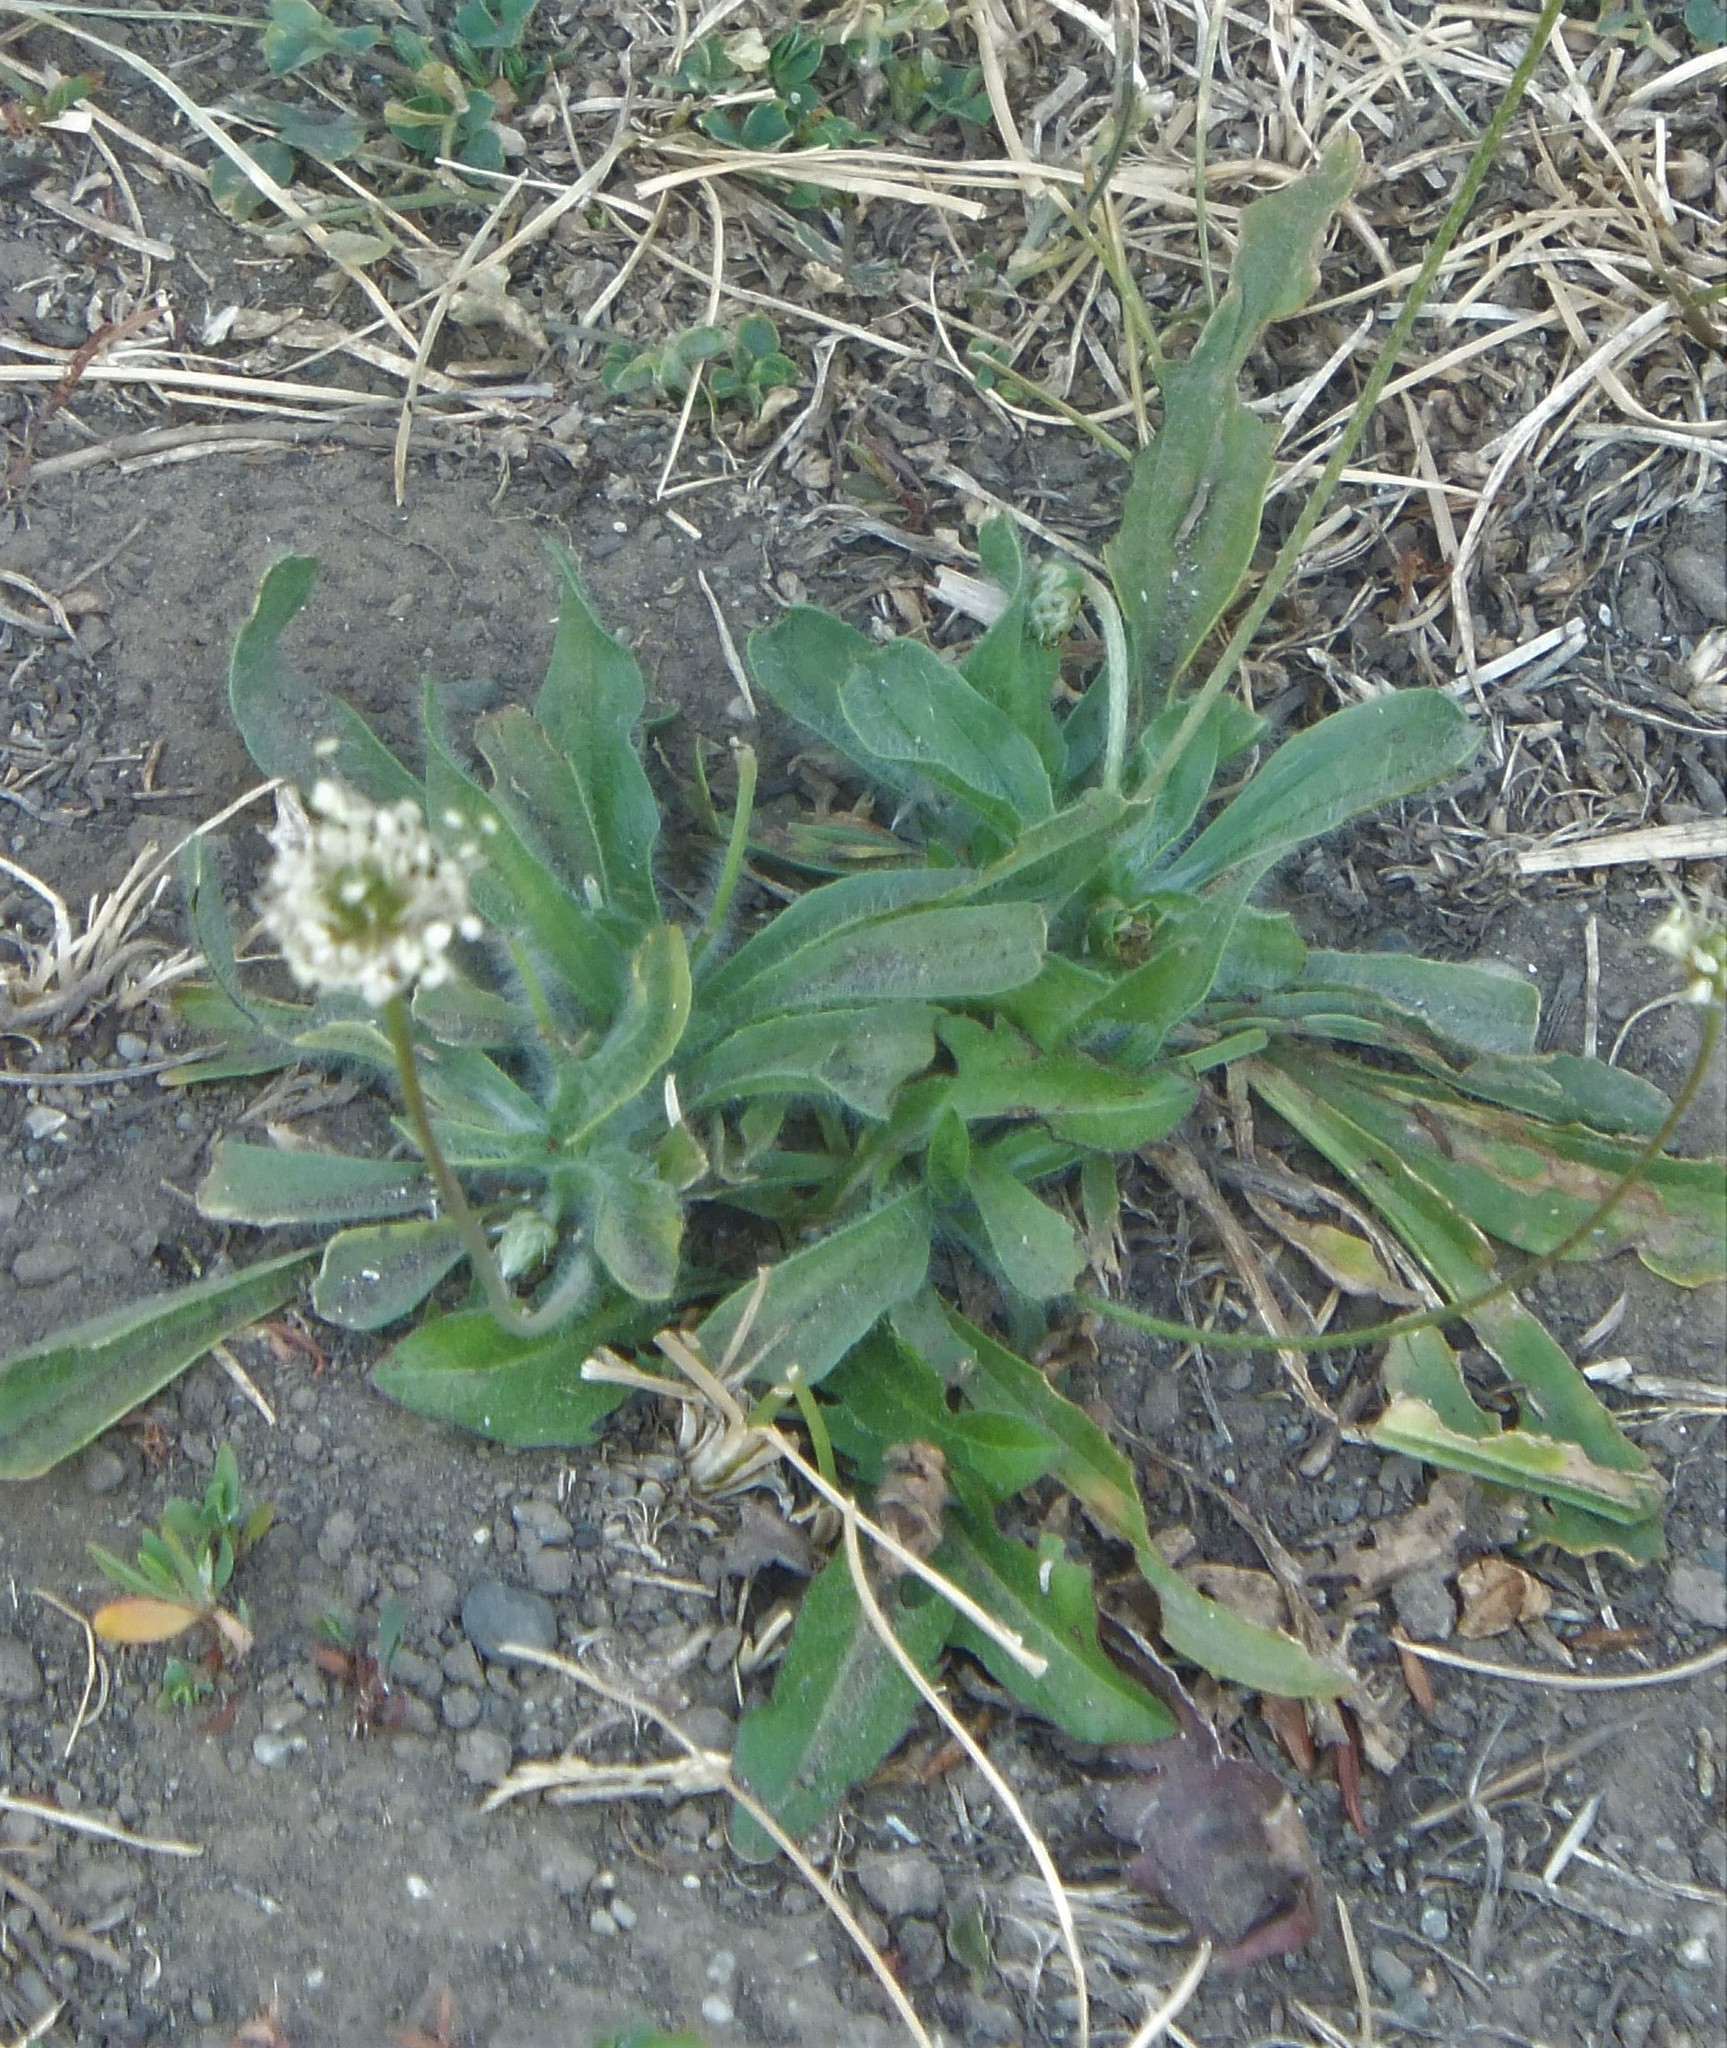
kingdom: Plantae
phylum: Tracheophyta
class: Magnoliopsida
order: Lamiales
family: Plantaginaceae
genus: Plantago
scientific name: Plantago lanceolata
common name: Ribwort plantain
